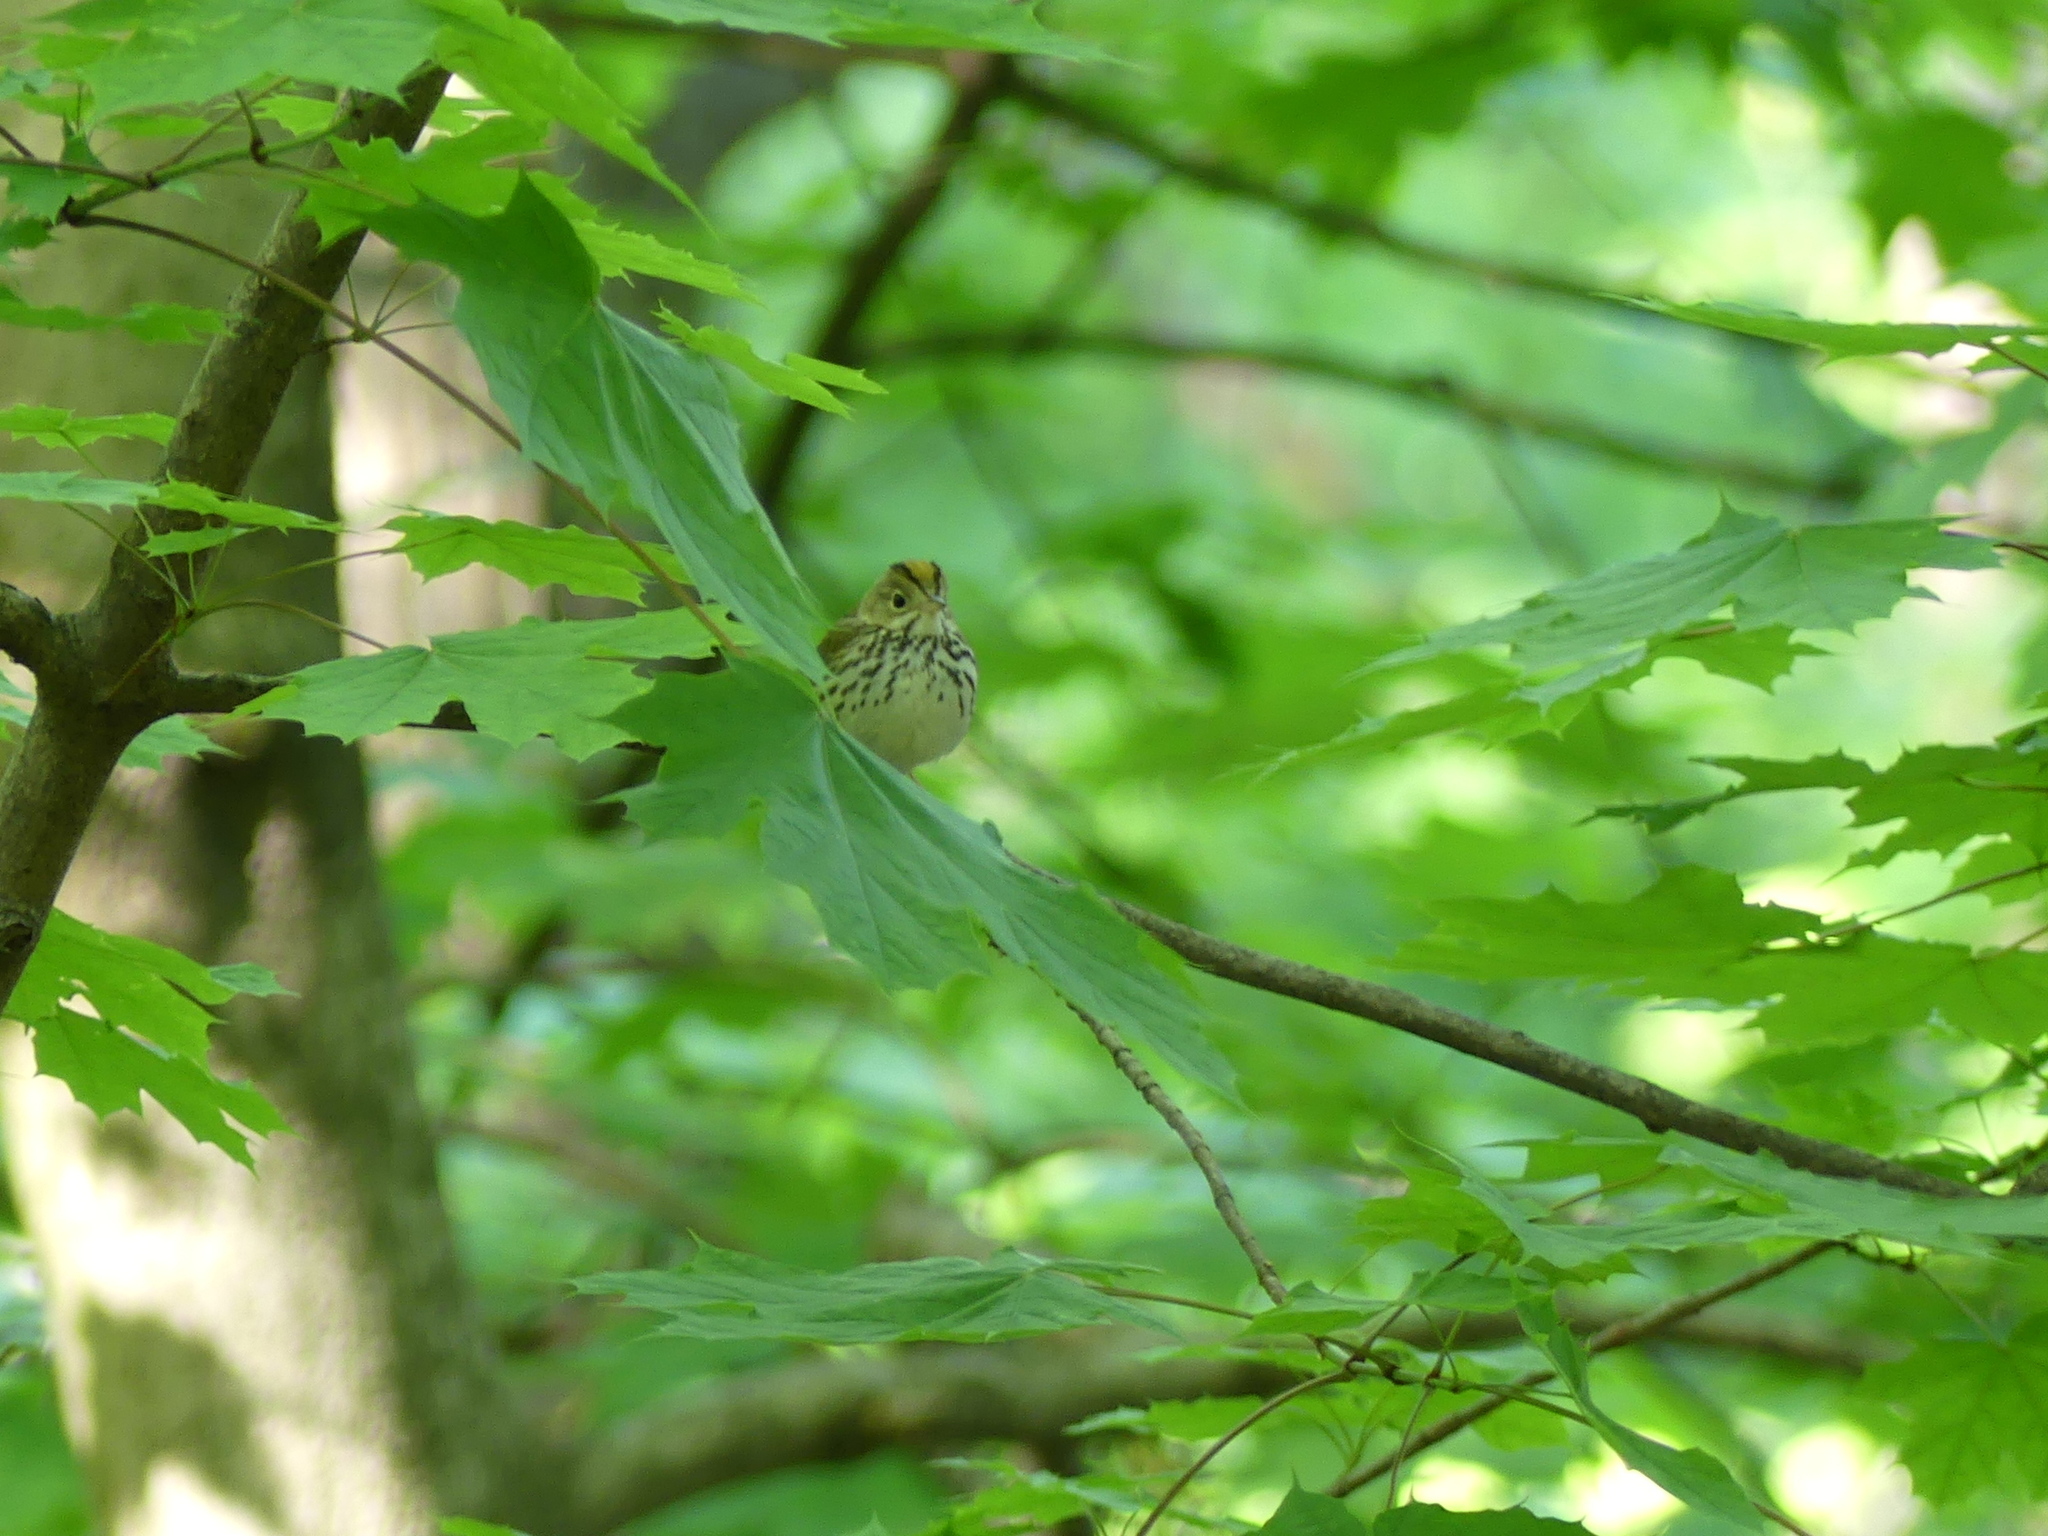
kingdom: Animalia
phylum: Chordata
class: Aves
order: Passeriformes
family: Parulidae
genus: Seiurus
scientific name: Seiurus aurocapilla
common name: Ovenbird
